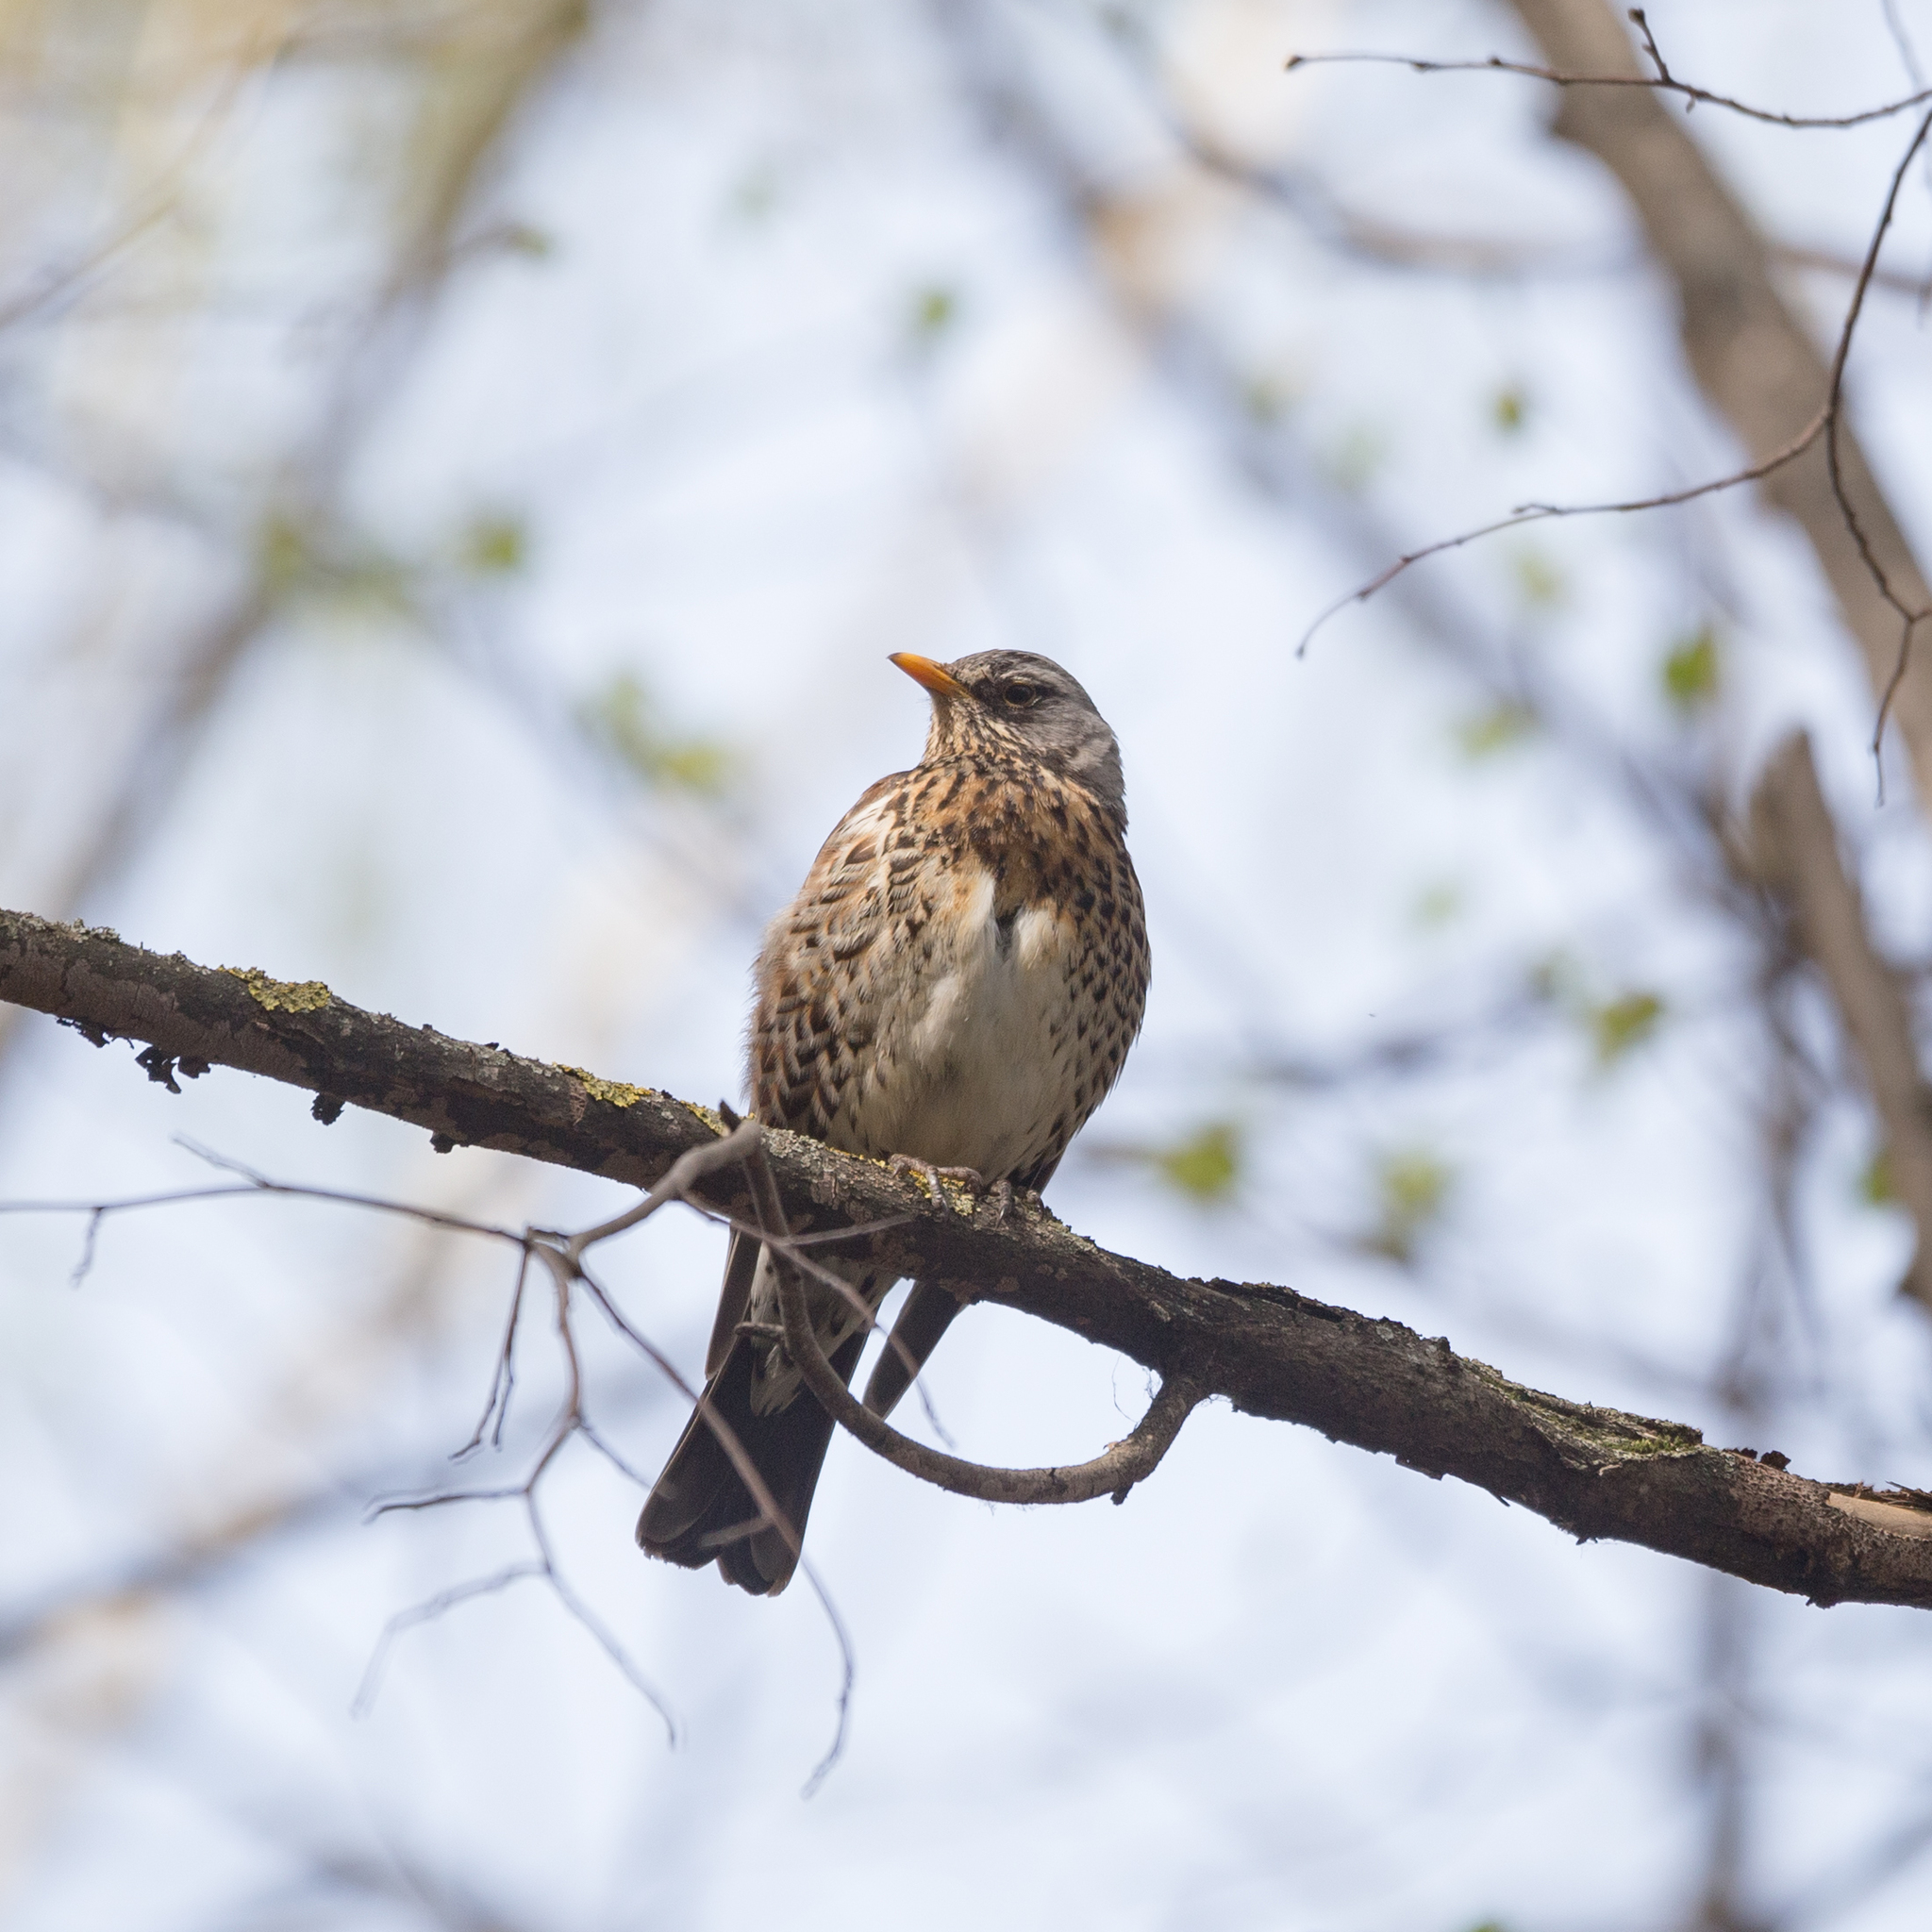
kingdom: Animalia
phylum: Chordata
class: Aves
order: Passeriformes
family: Turdidae
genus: Turdus
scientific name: Turdus pilaris
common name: Fieldfare
